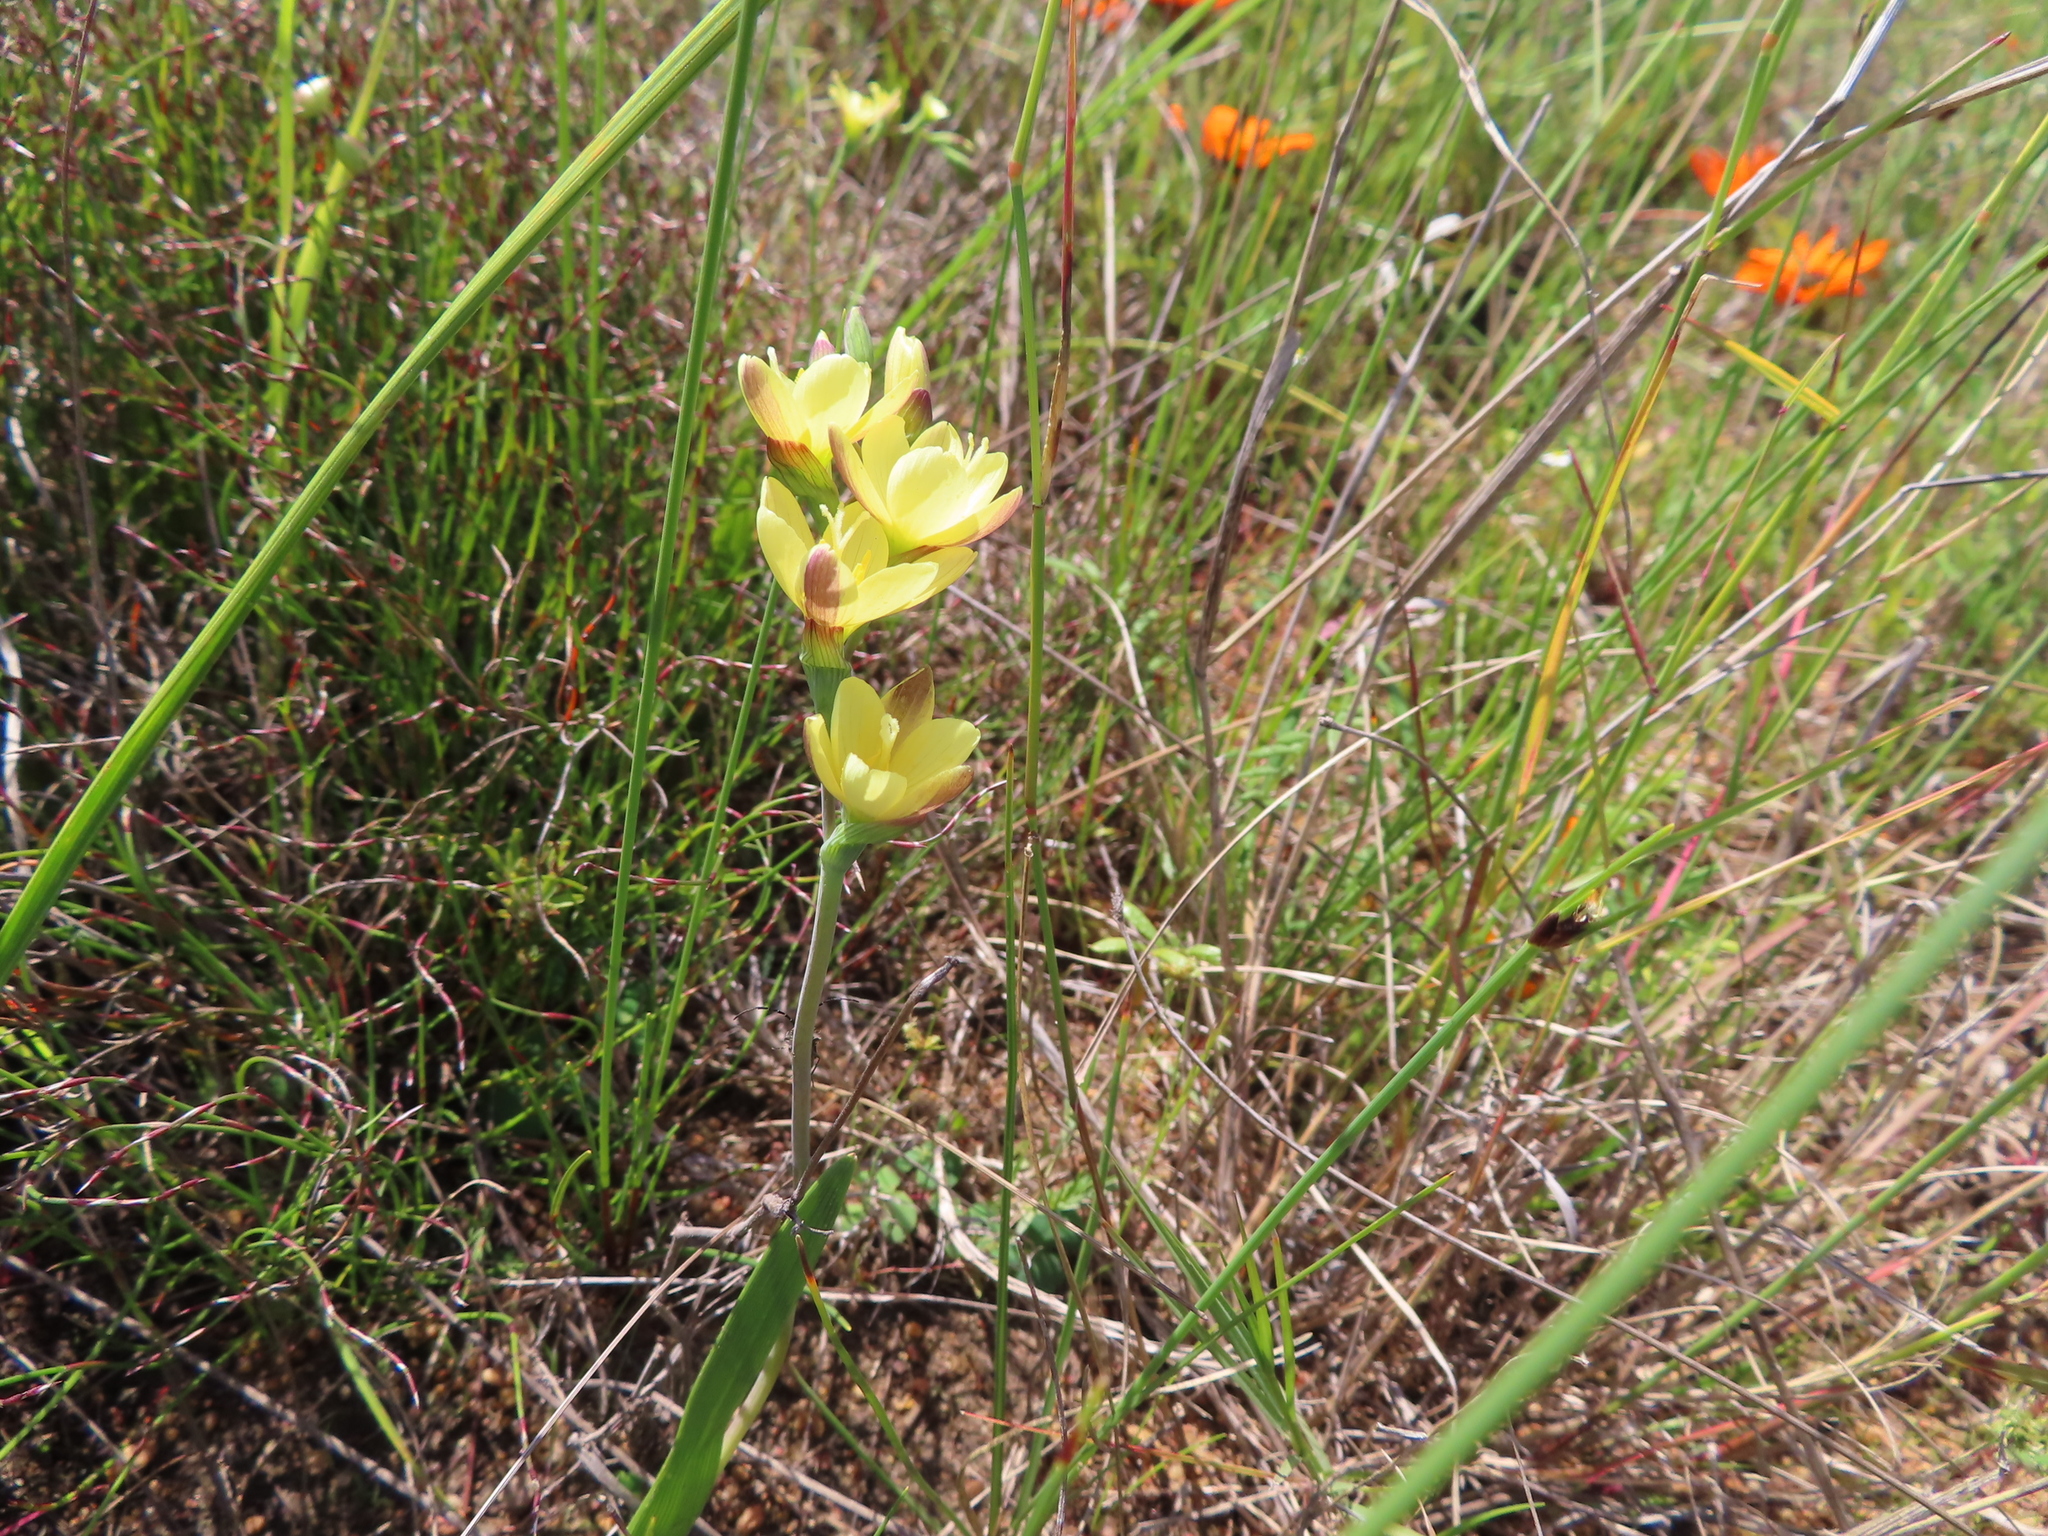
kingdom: Plantae
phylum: Tracheophyta
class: Liliopsida
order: Asparagales
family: Iridaceae
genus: Geissorhiza
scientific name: Geissorhiza ornithogaloides
